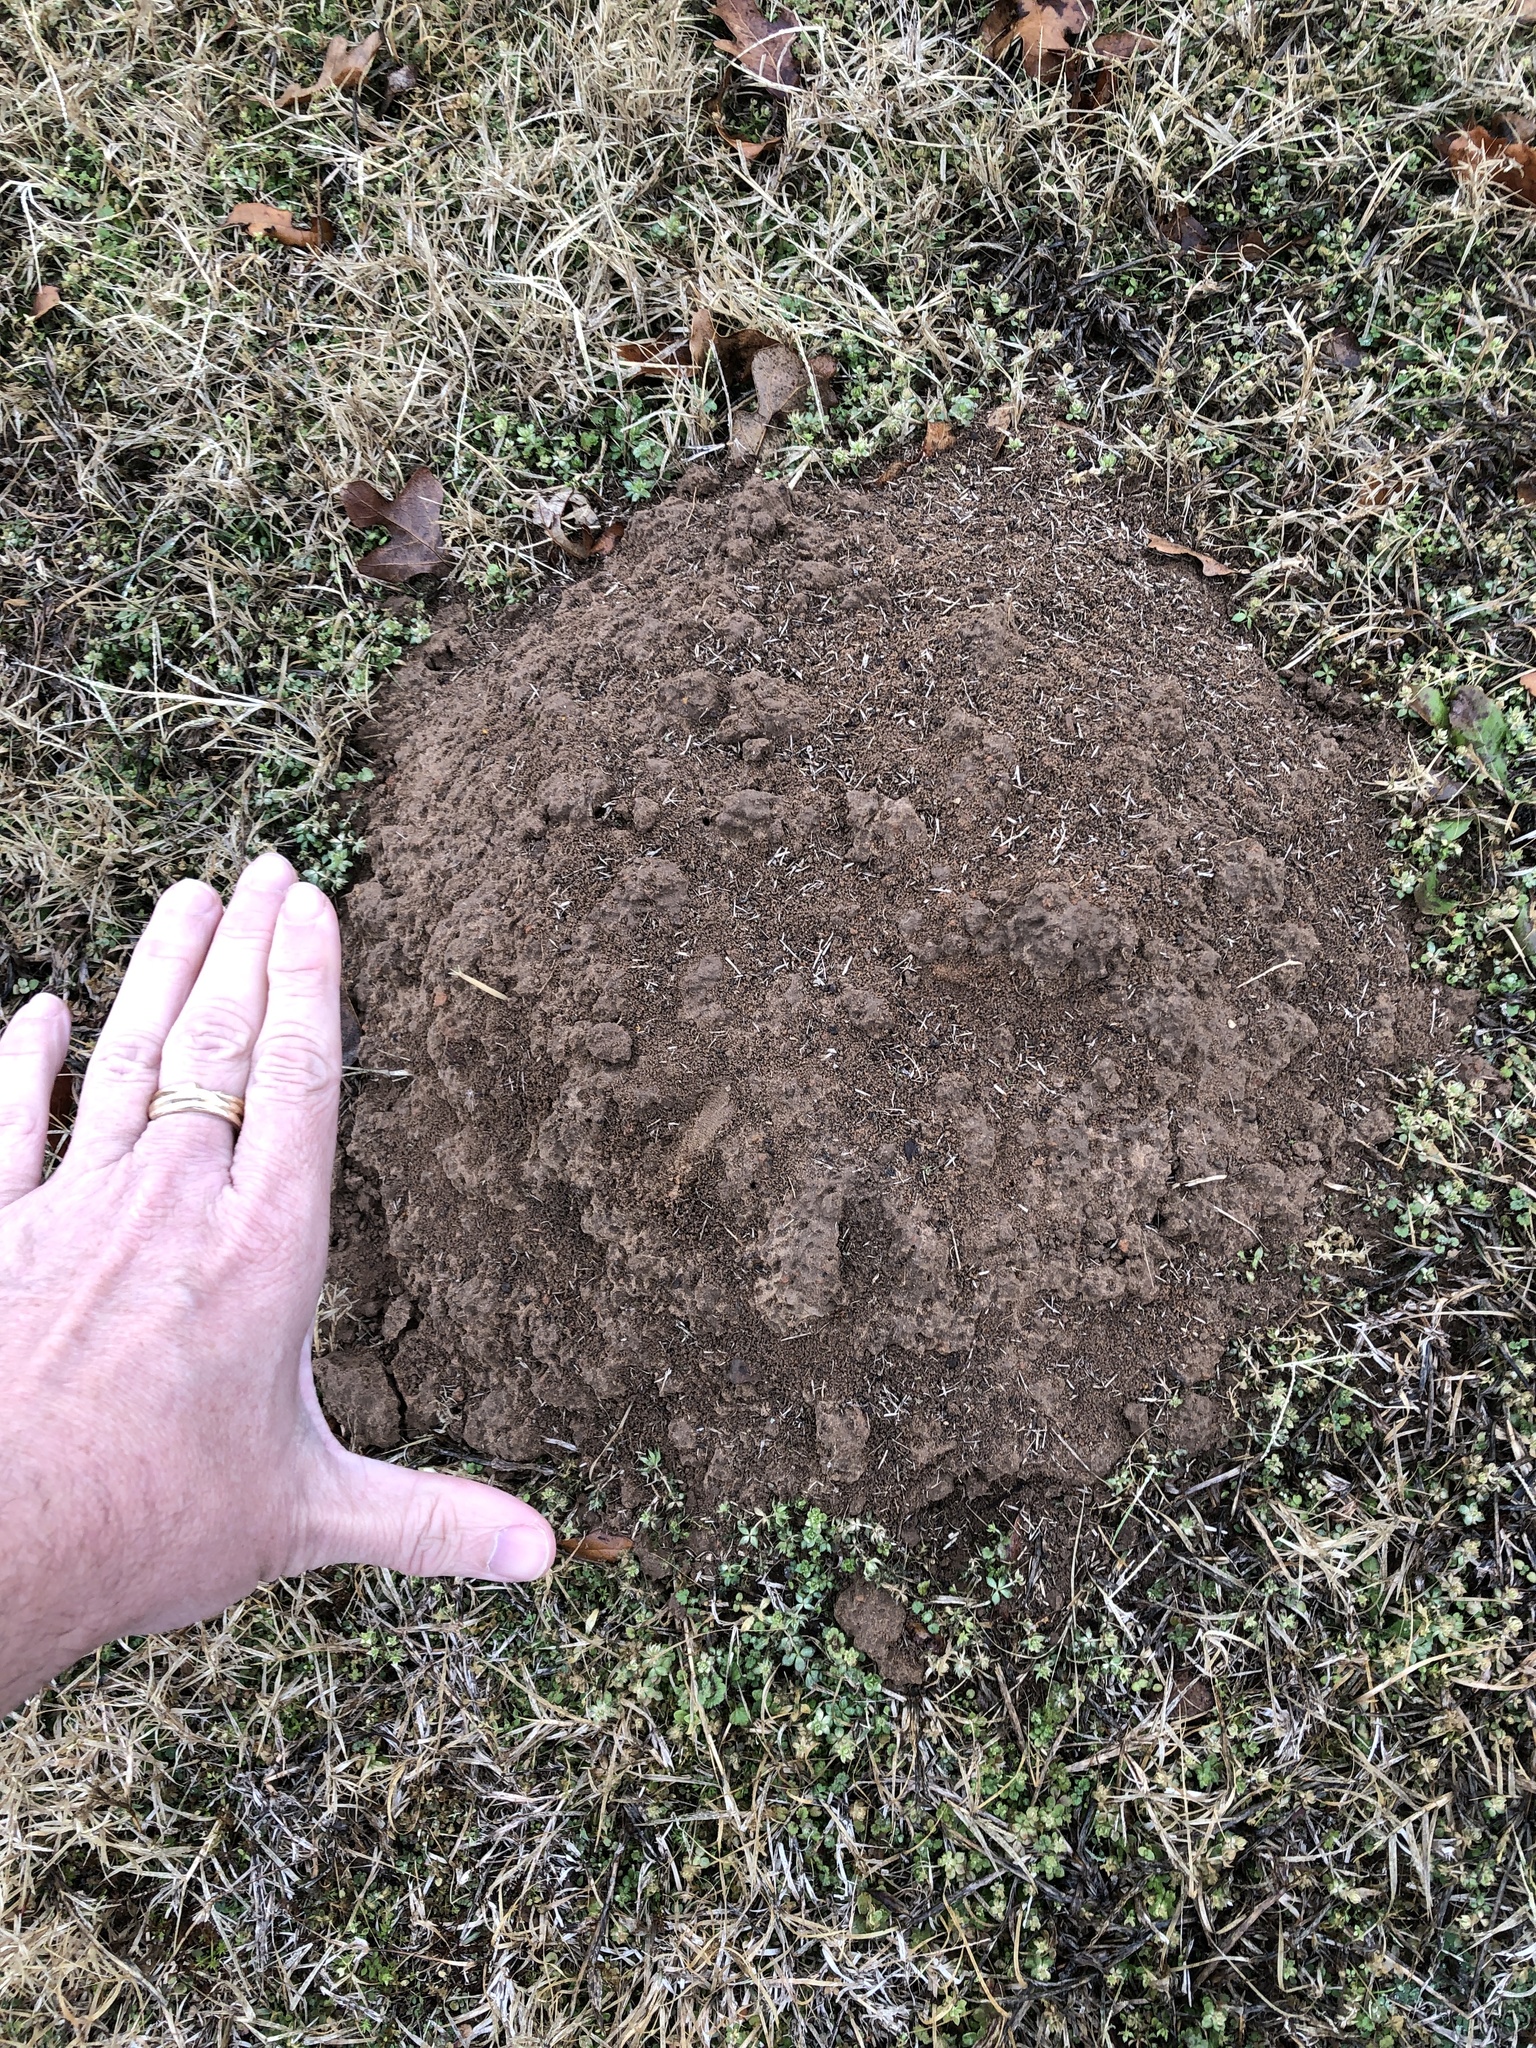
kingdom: Animalia
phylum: Chordata
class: Mammalia
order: Rodentia
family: Geomyidae
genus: Geomys
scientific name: Geomys bursarius
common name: Plains pocket gopher
